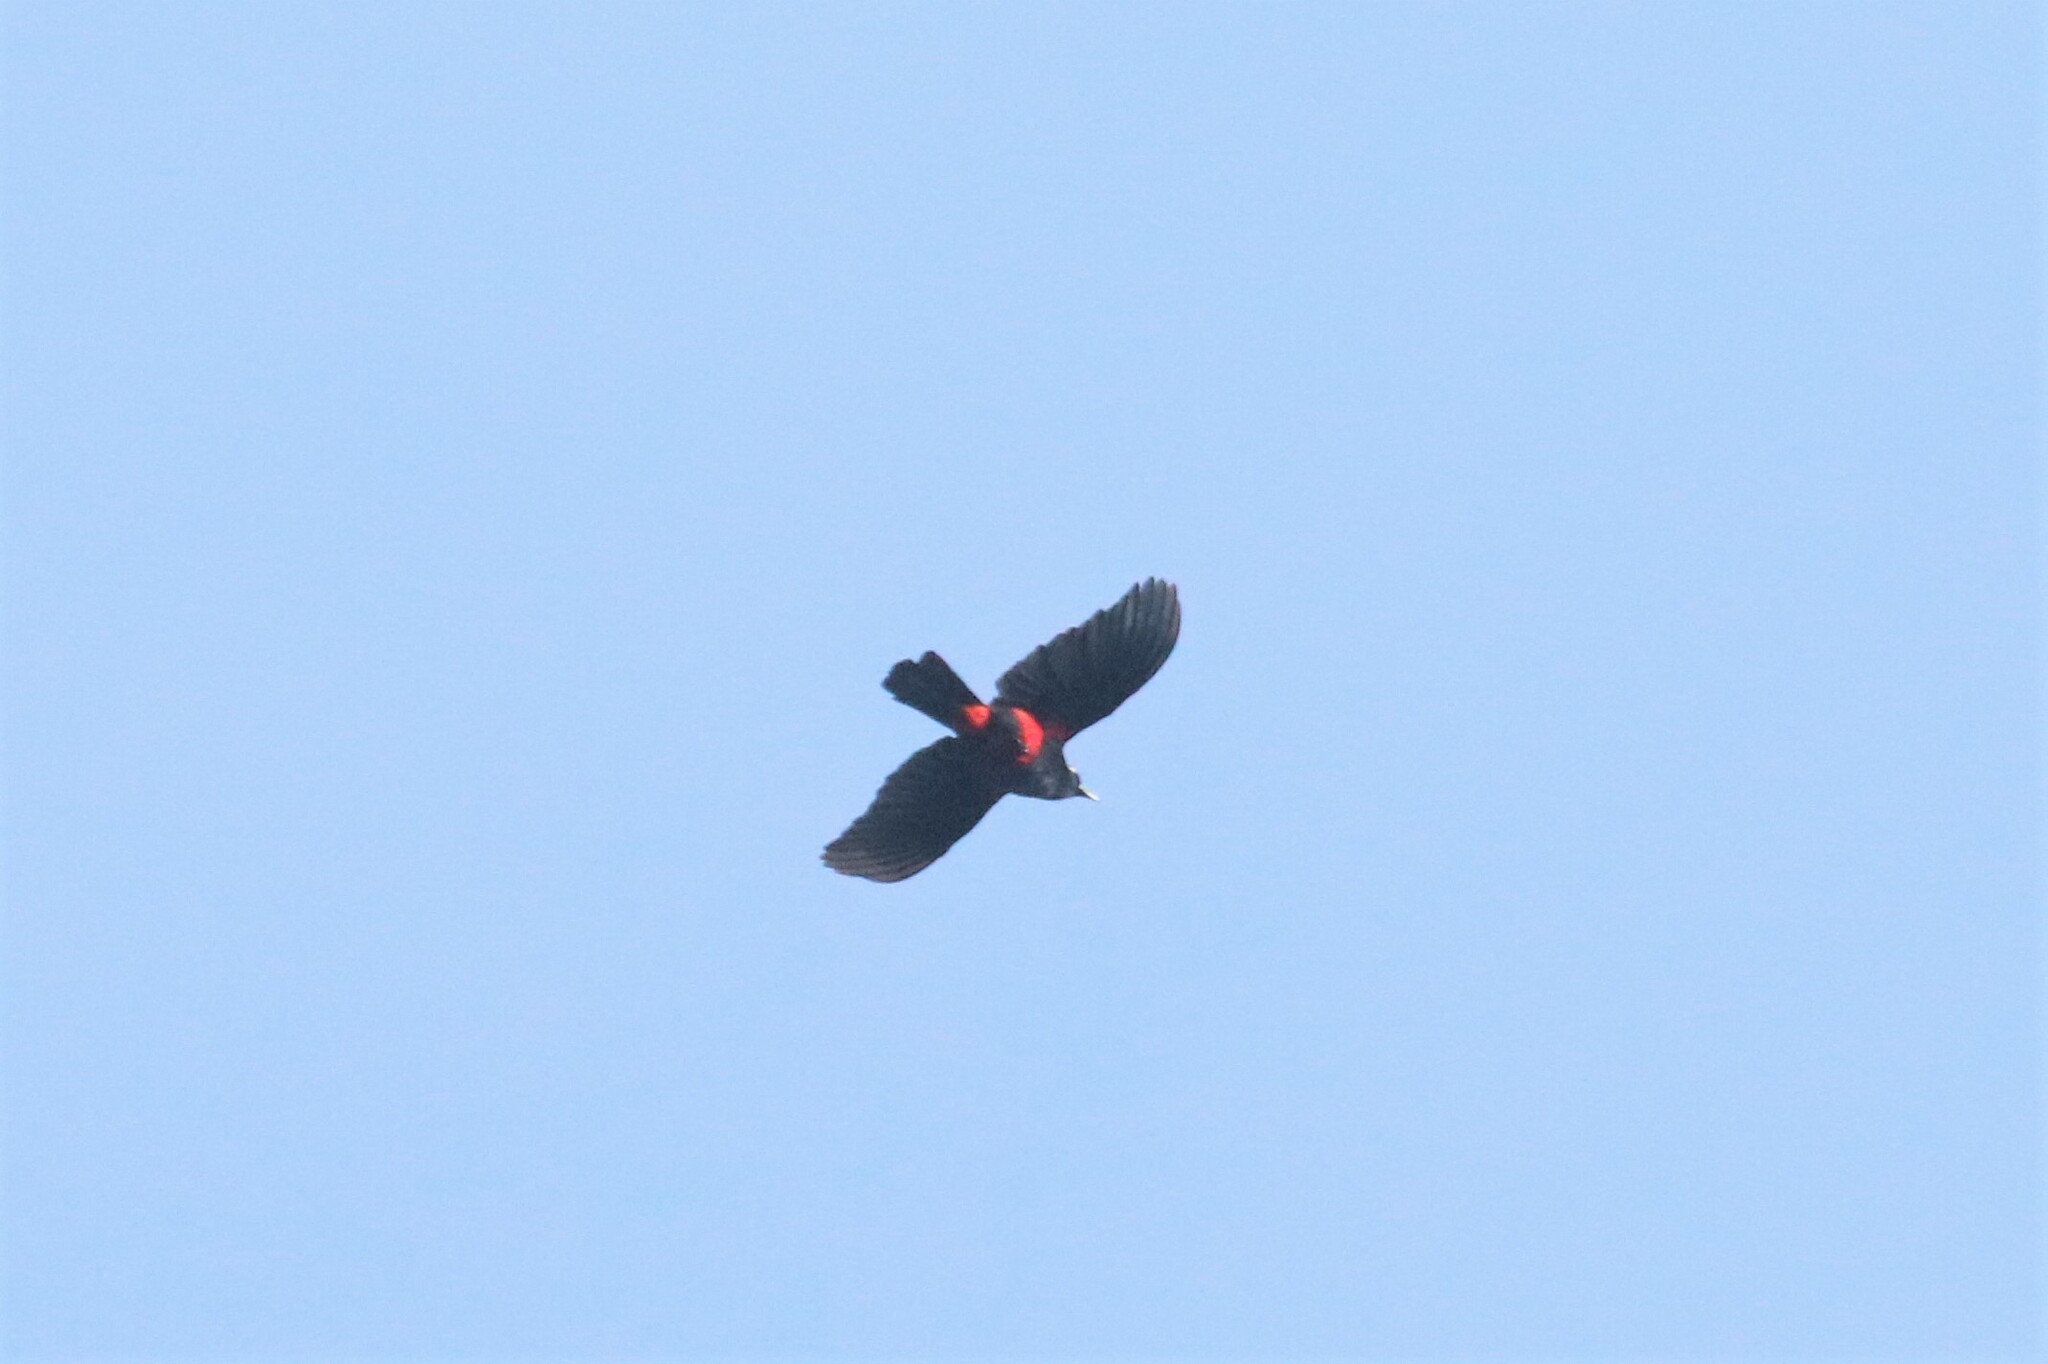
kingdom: Animalia
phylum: Chordata
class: Aves
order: Passeriformes
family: Icteridae
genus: Hypopyrrhus
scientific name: Hypopyrrhus pyrohypogaster
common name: Red-bellied grackle
